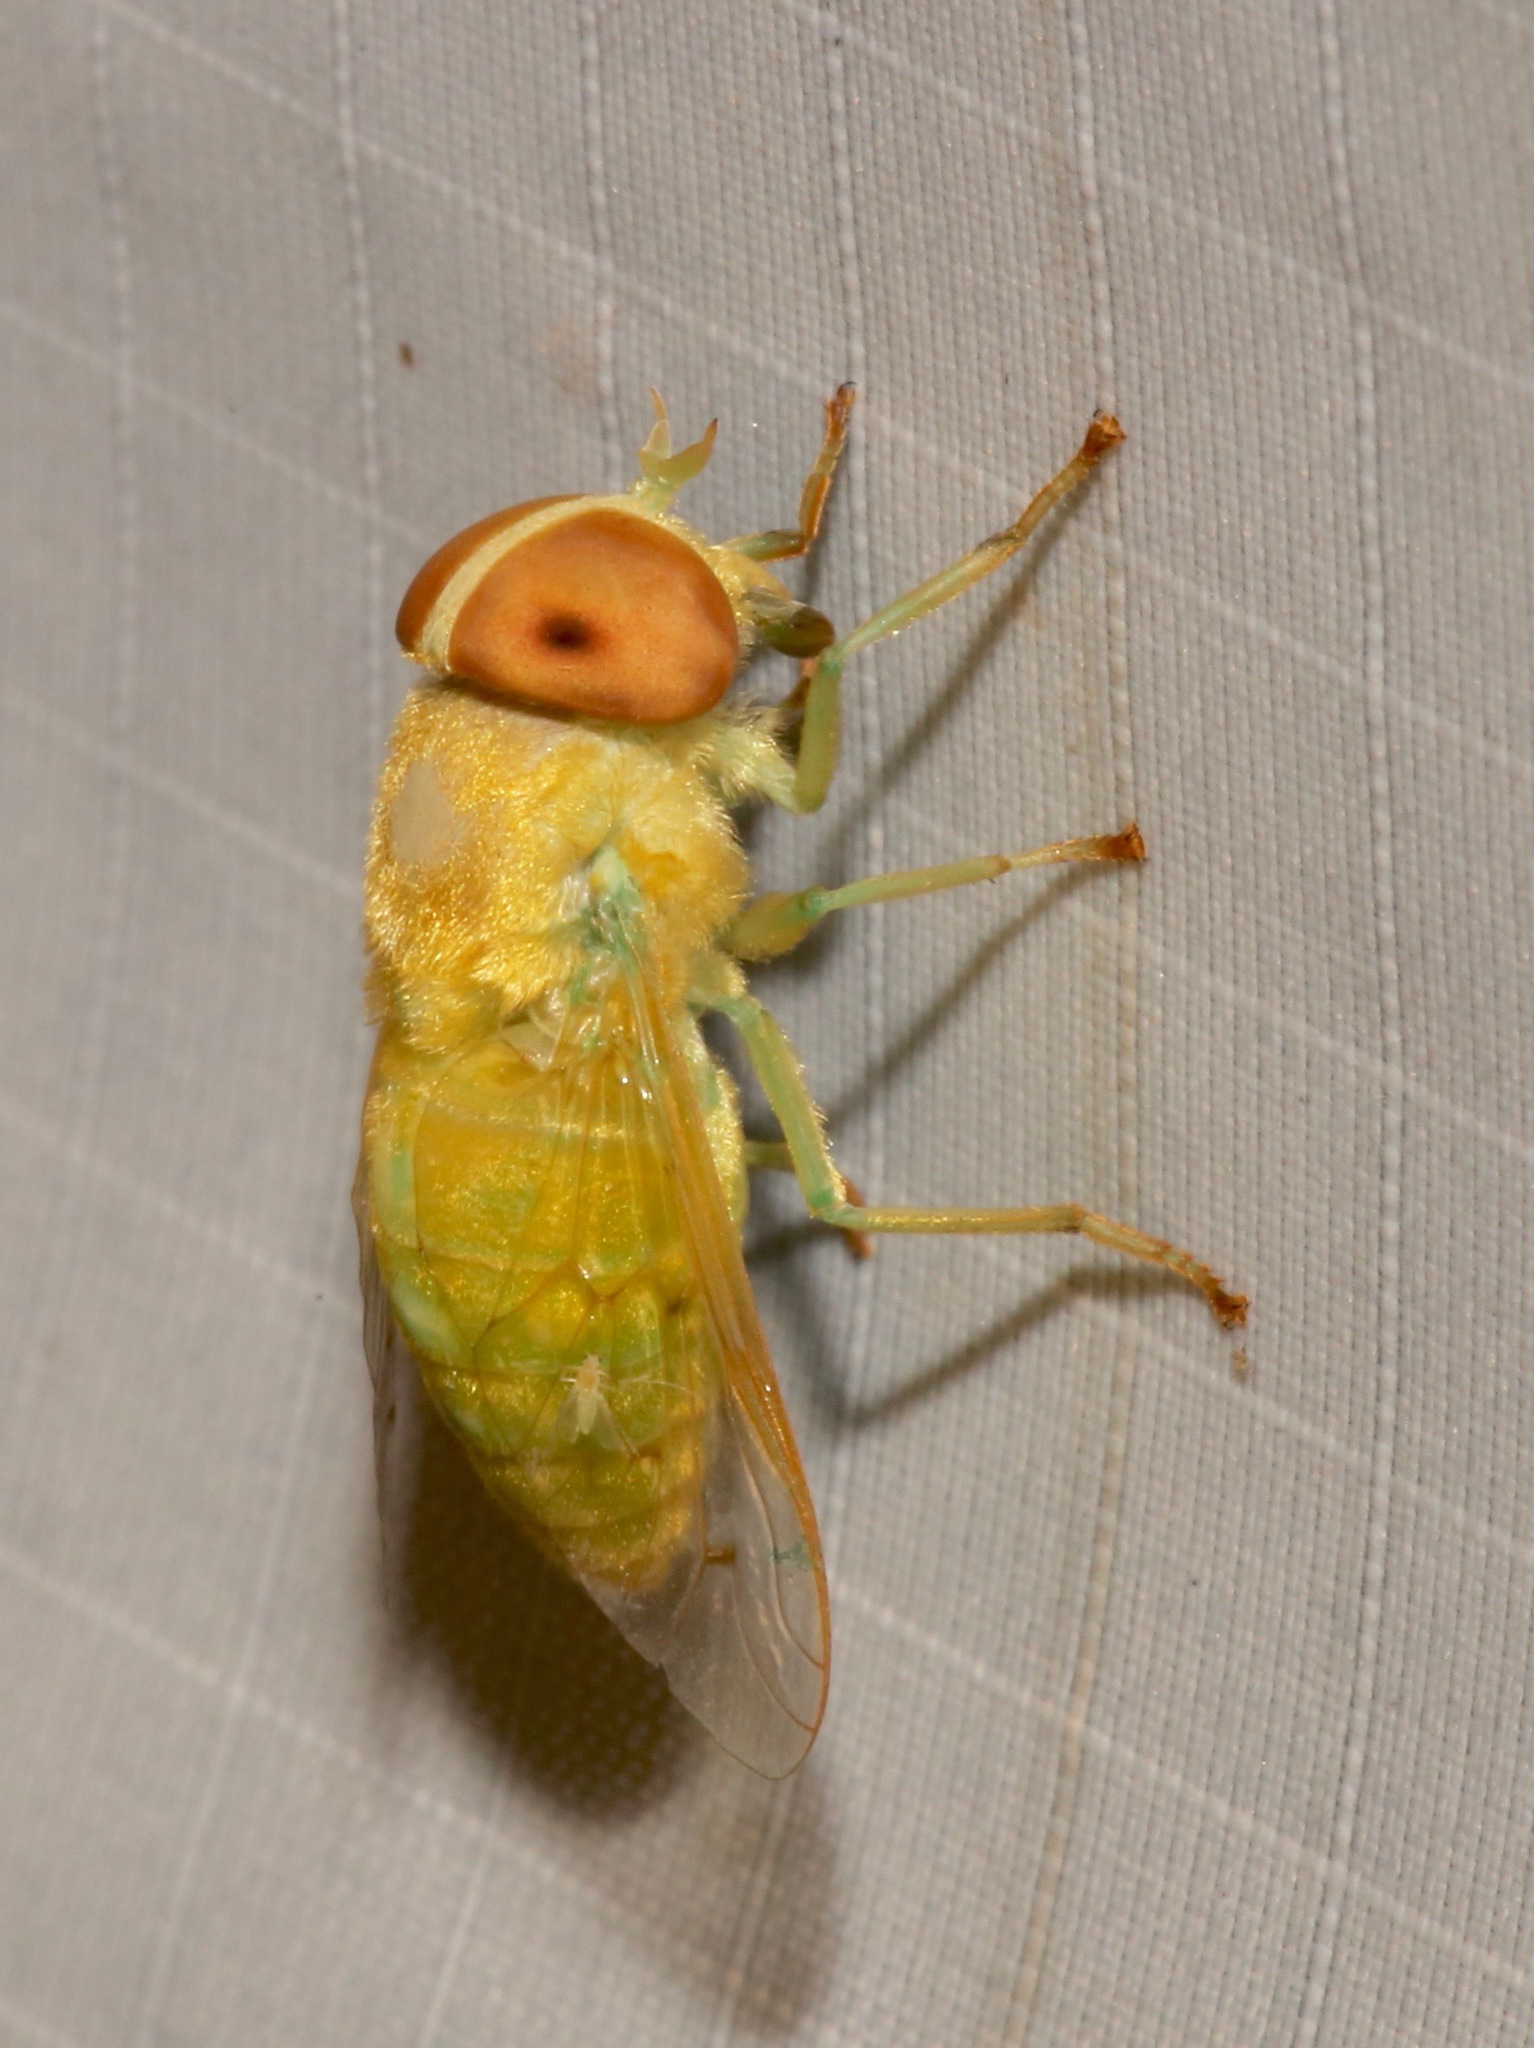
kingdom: Animalia
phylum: Arthropoda
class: Insecta
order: Diptera
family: Tabanidae
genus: Chlorotabanus
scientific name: Chlorotabanus crepuscularis
